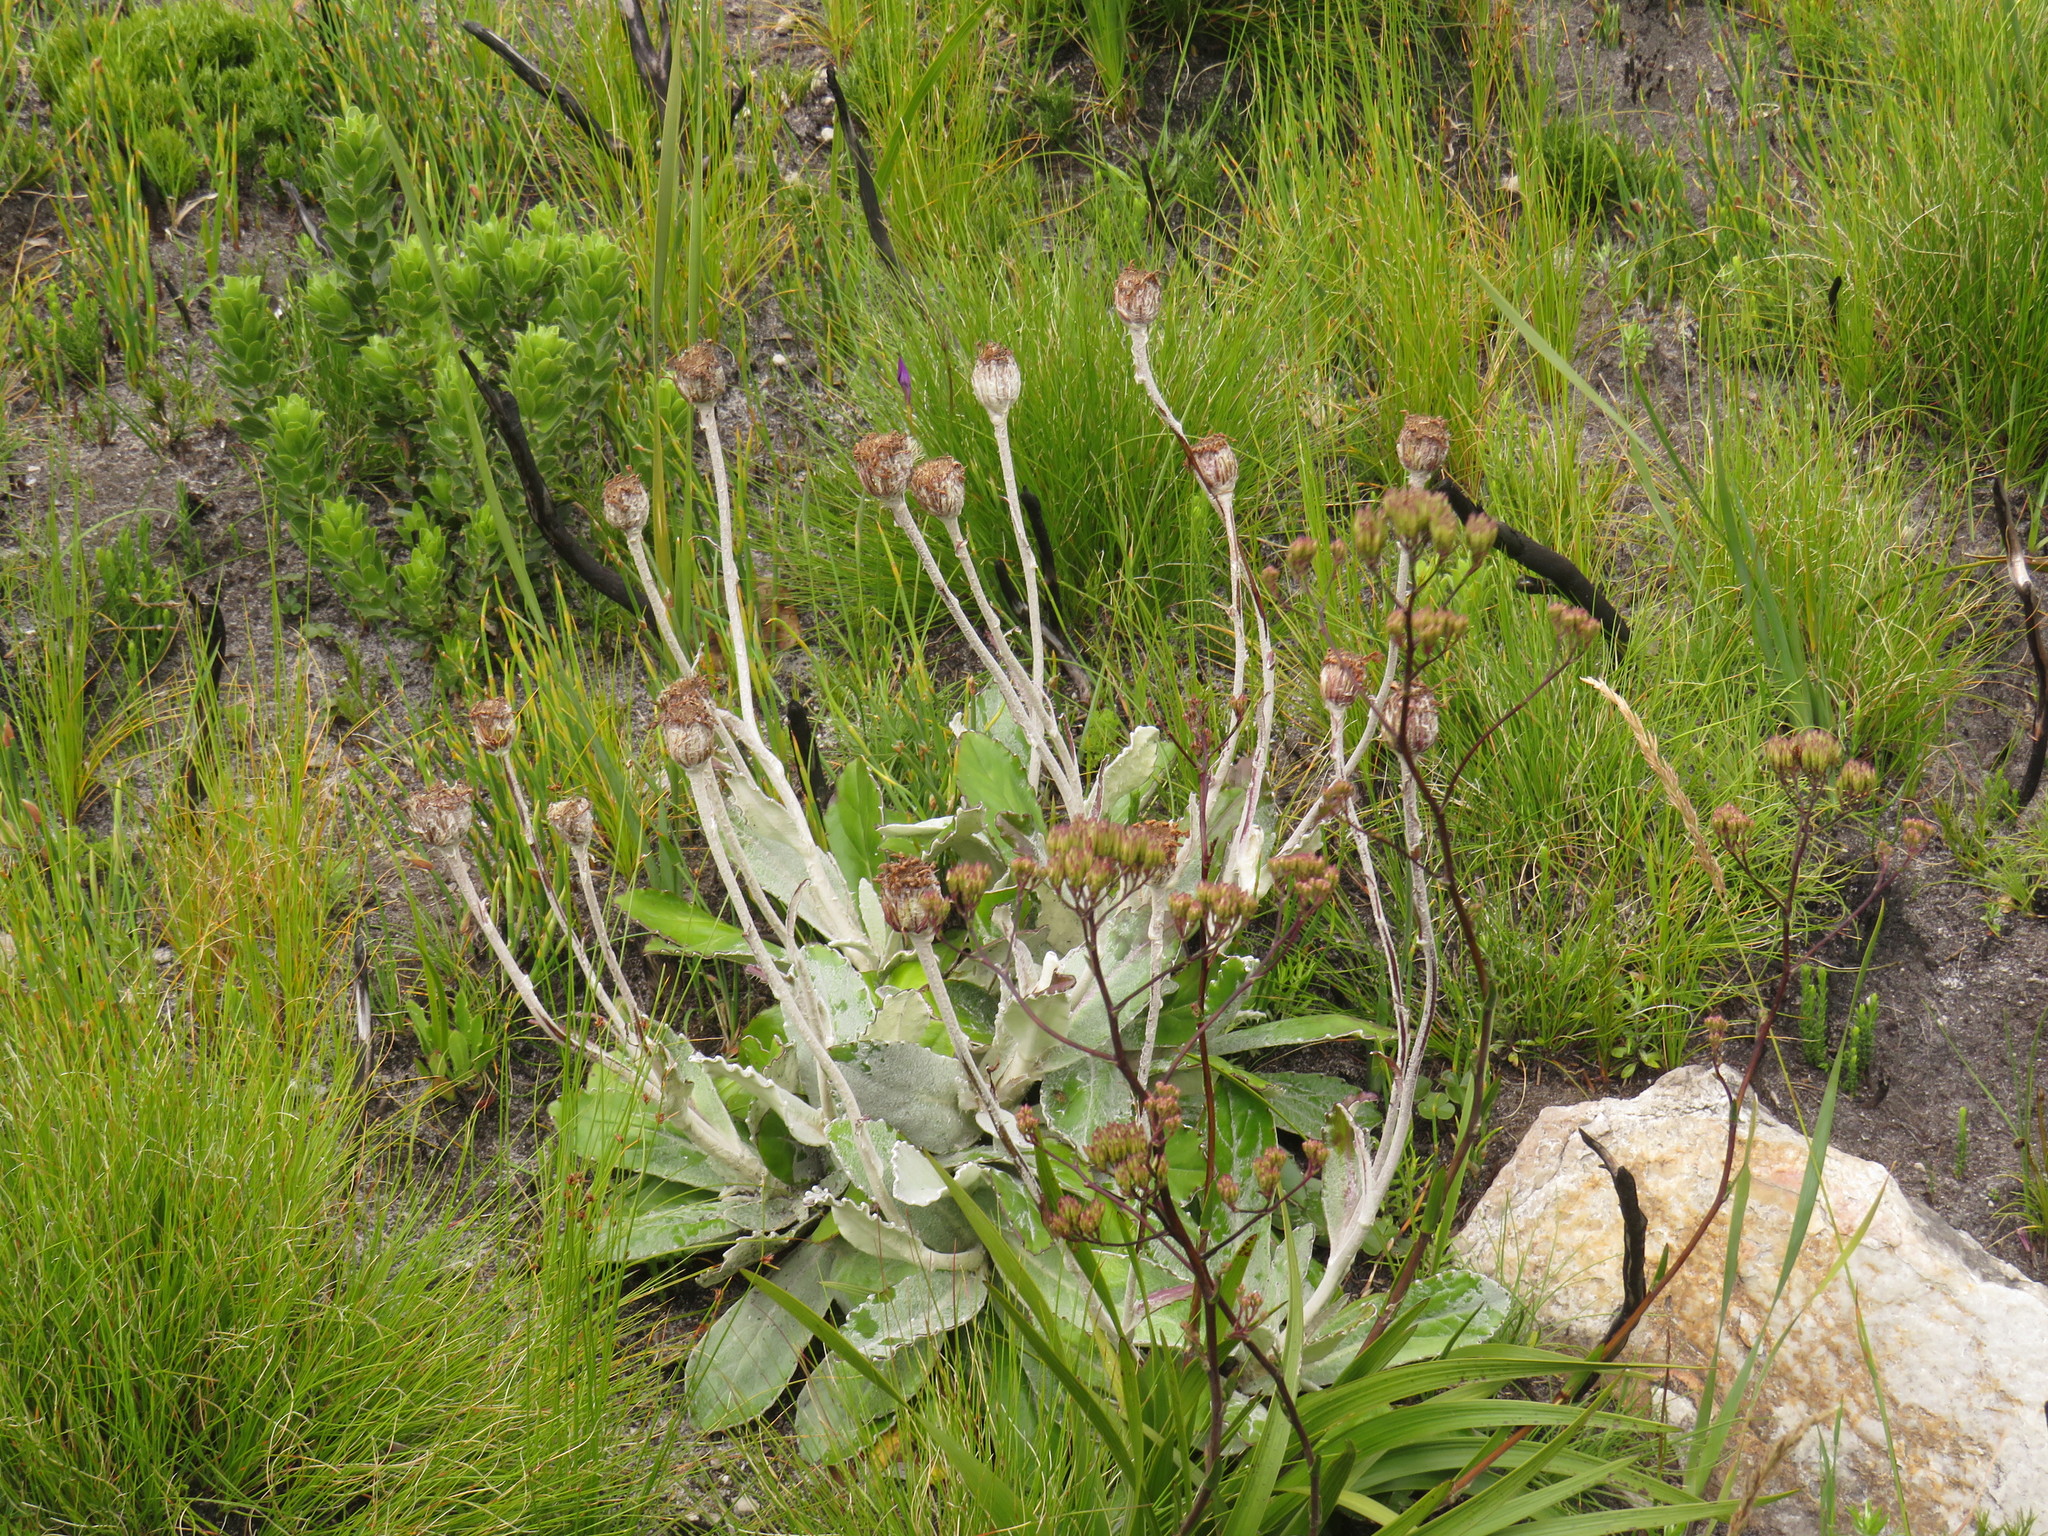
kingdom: Plantae
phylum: Tracheophyta
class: Magnoliopsida
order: Asterales
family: Asteraceae
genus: Mairia
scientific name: Mairia robusta
